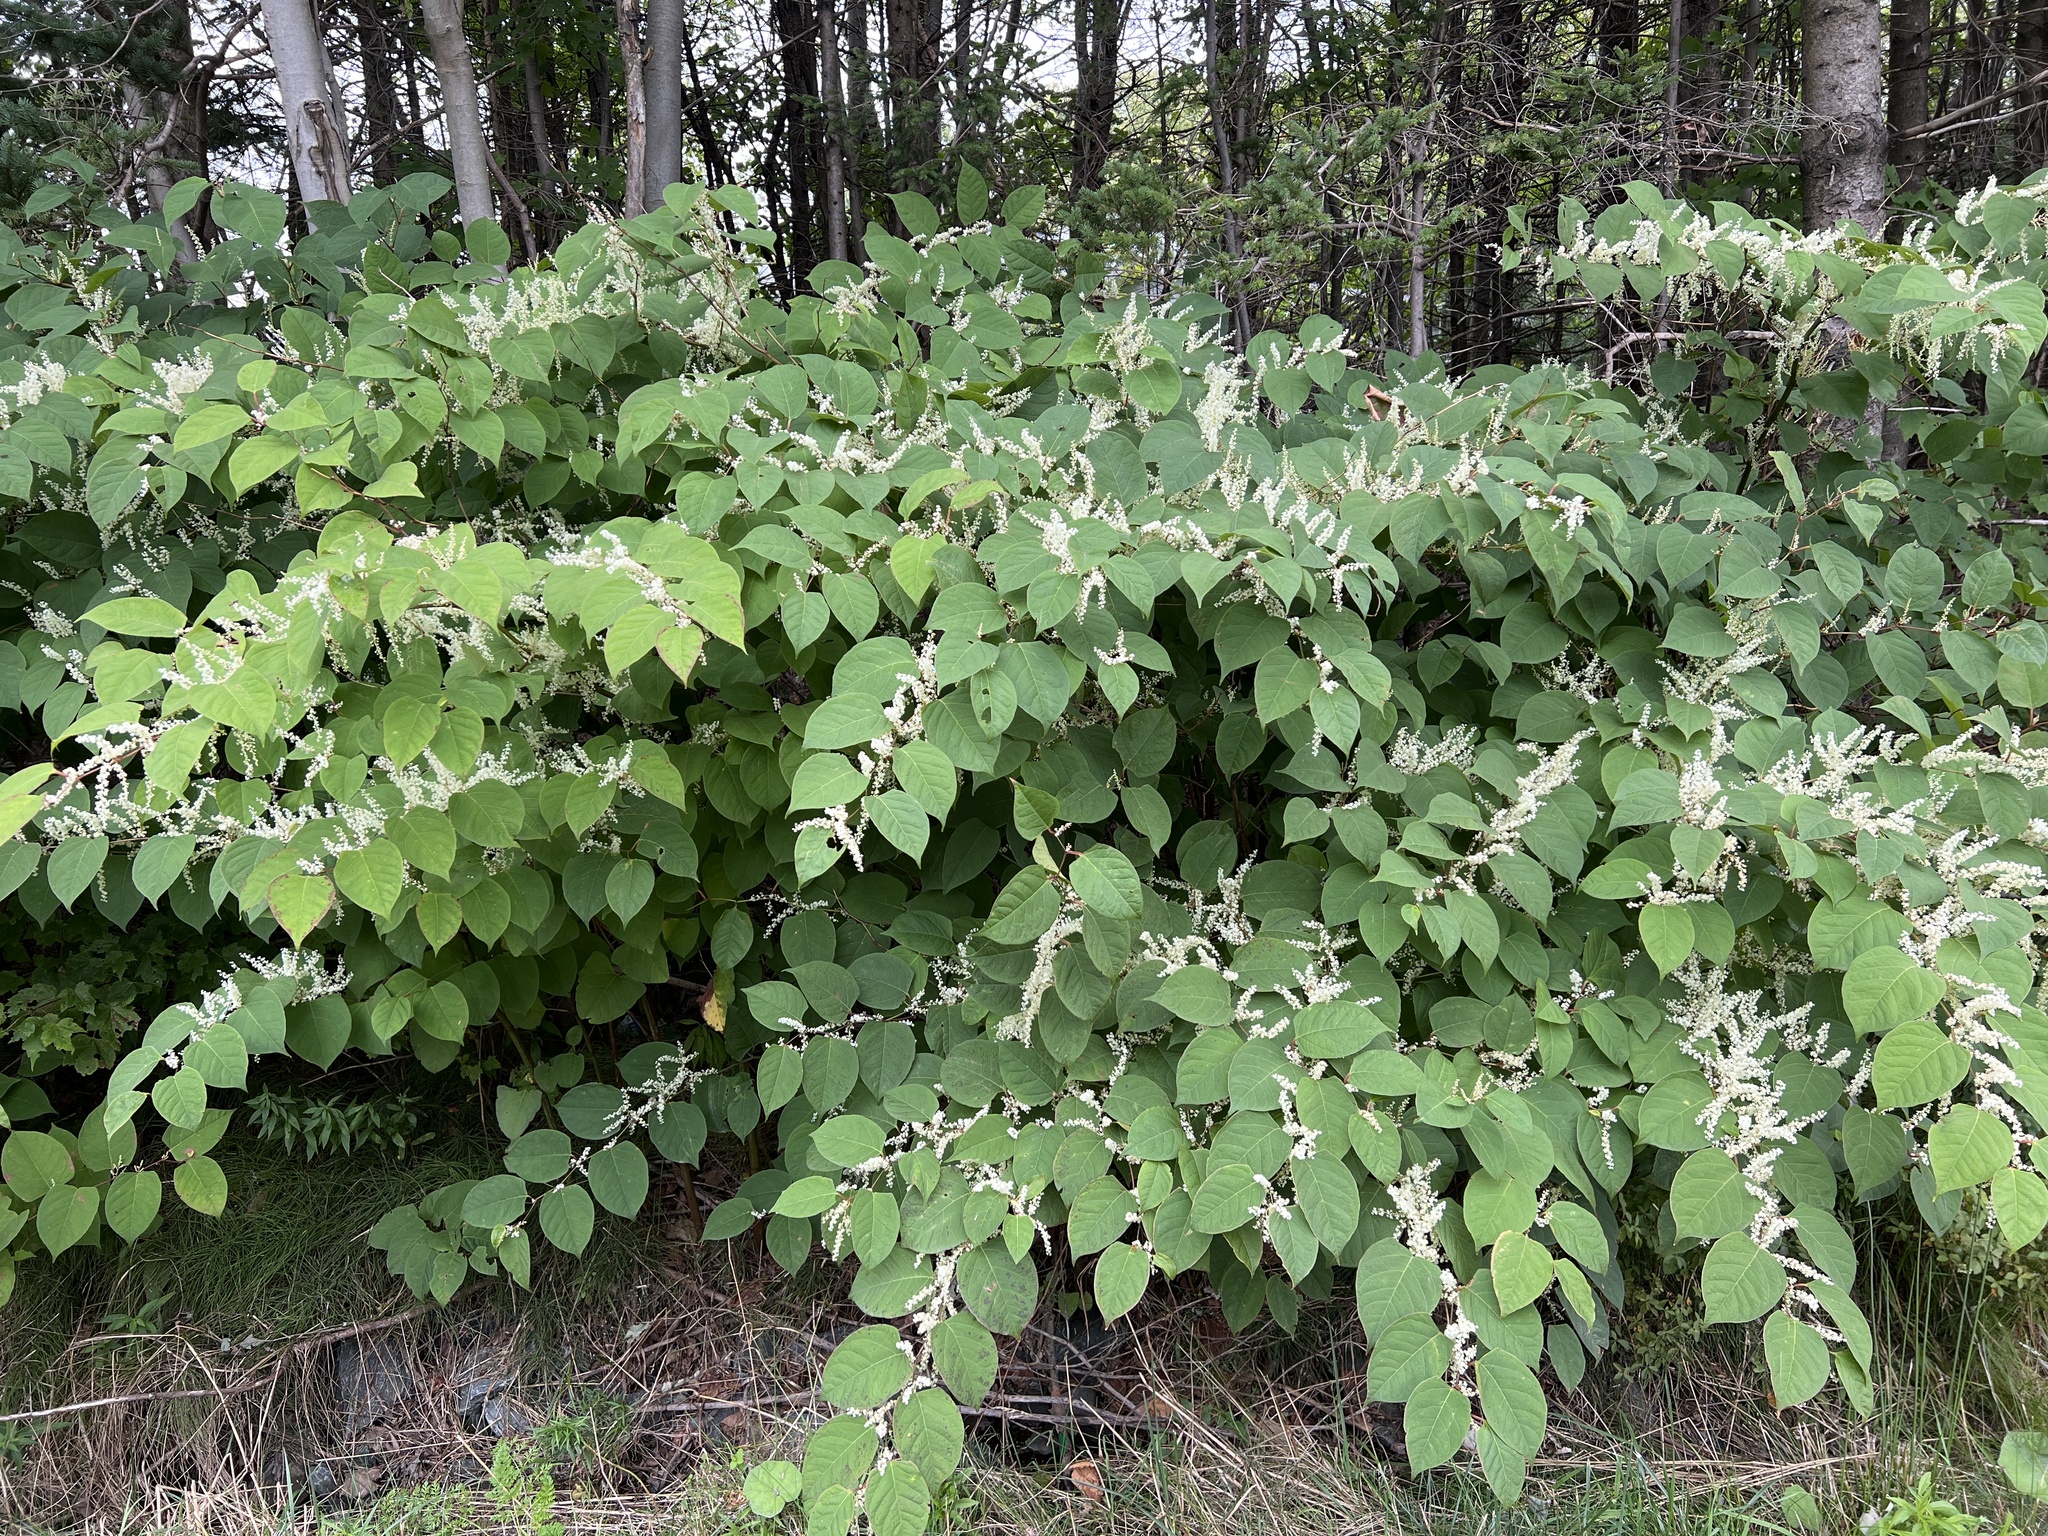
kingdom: Plantae
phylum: Tracheophyta
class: Magnoliopsida
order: Caryophyllales
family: Polygonaceae
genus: Reynoutria
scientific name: Reynoutria japonica
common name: Japanese knotweed
